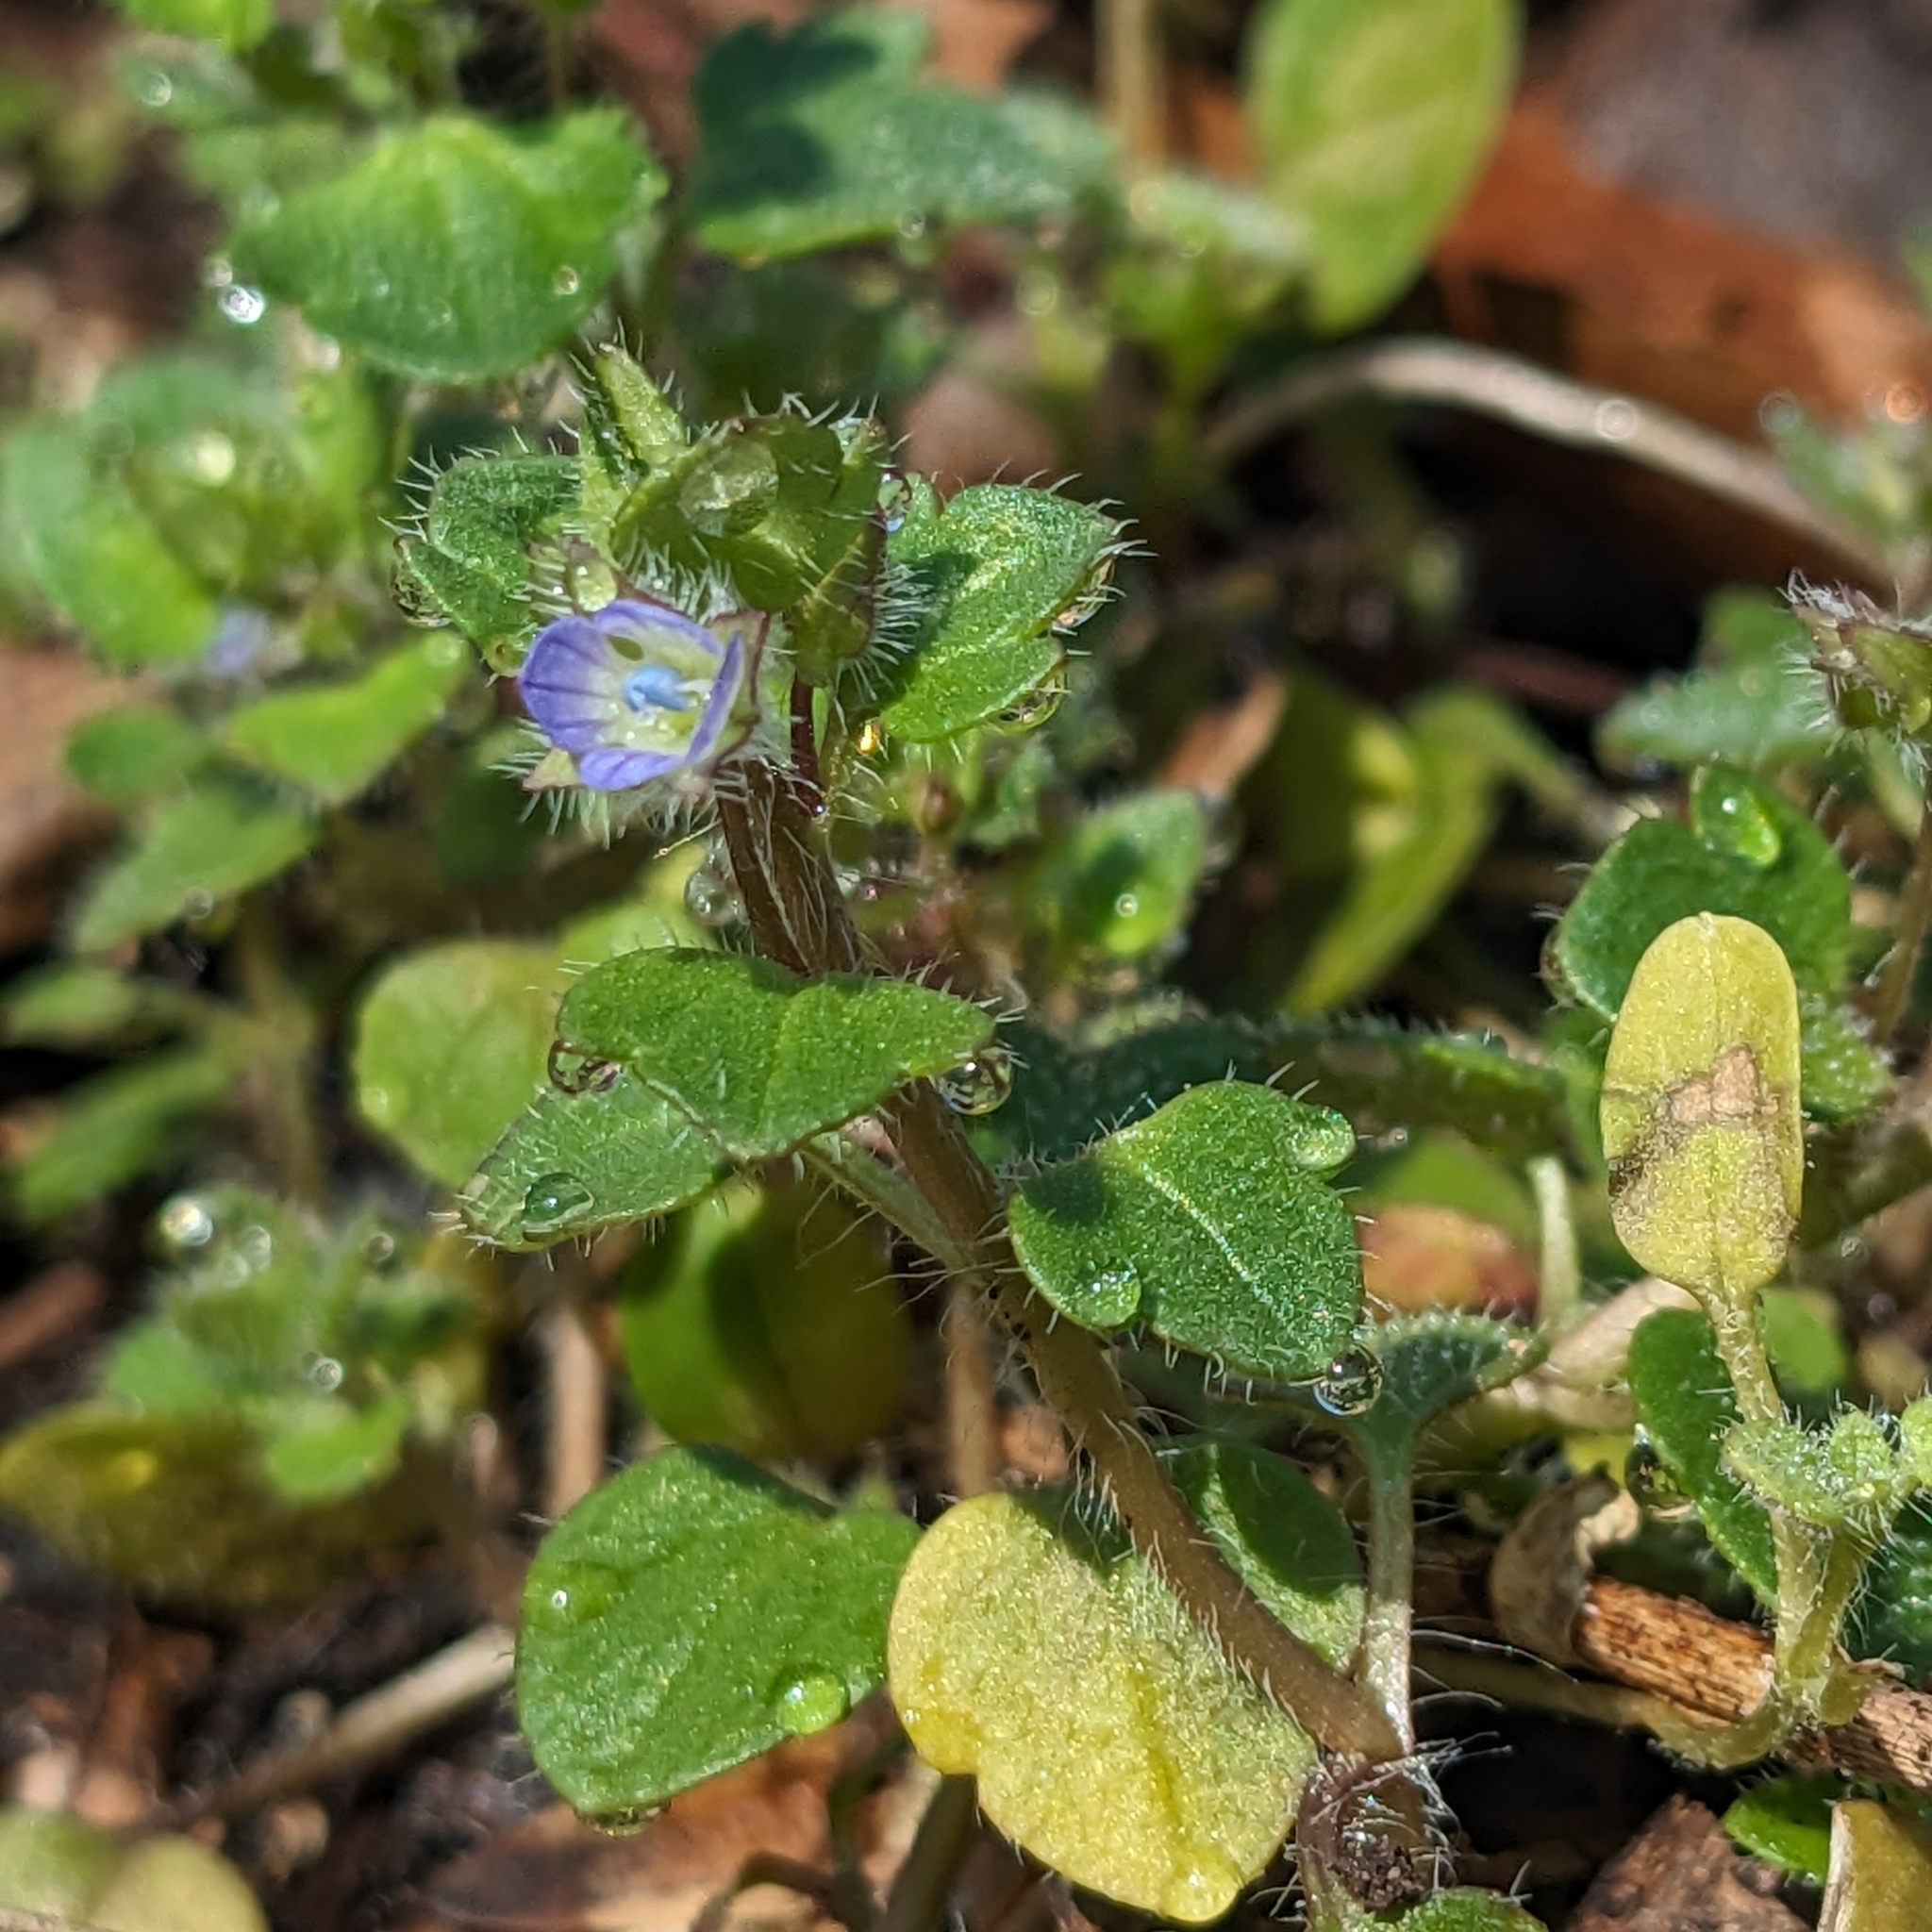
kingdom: Plantae
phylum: Tracheophyta
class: Magnoliopsida
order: Lamiales
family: Plantaginaceae
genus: Veronica
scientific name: Veronica hederifolia
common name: Ivy-leaved speedwell
